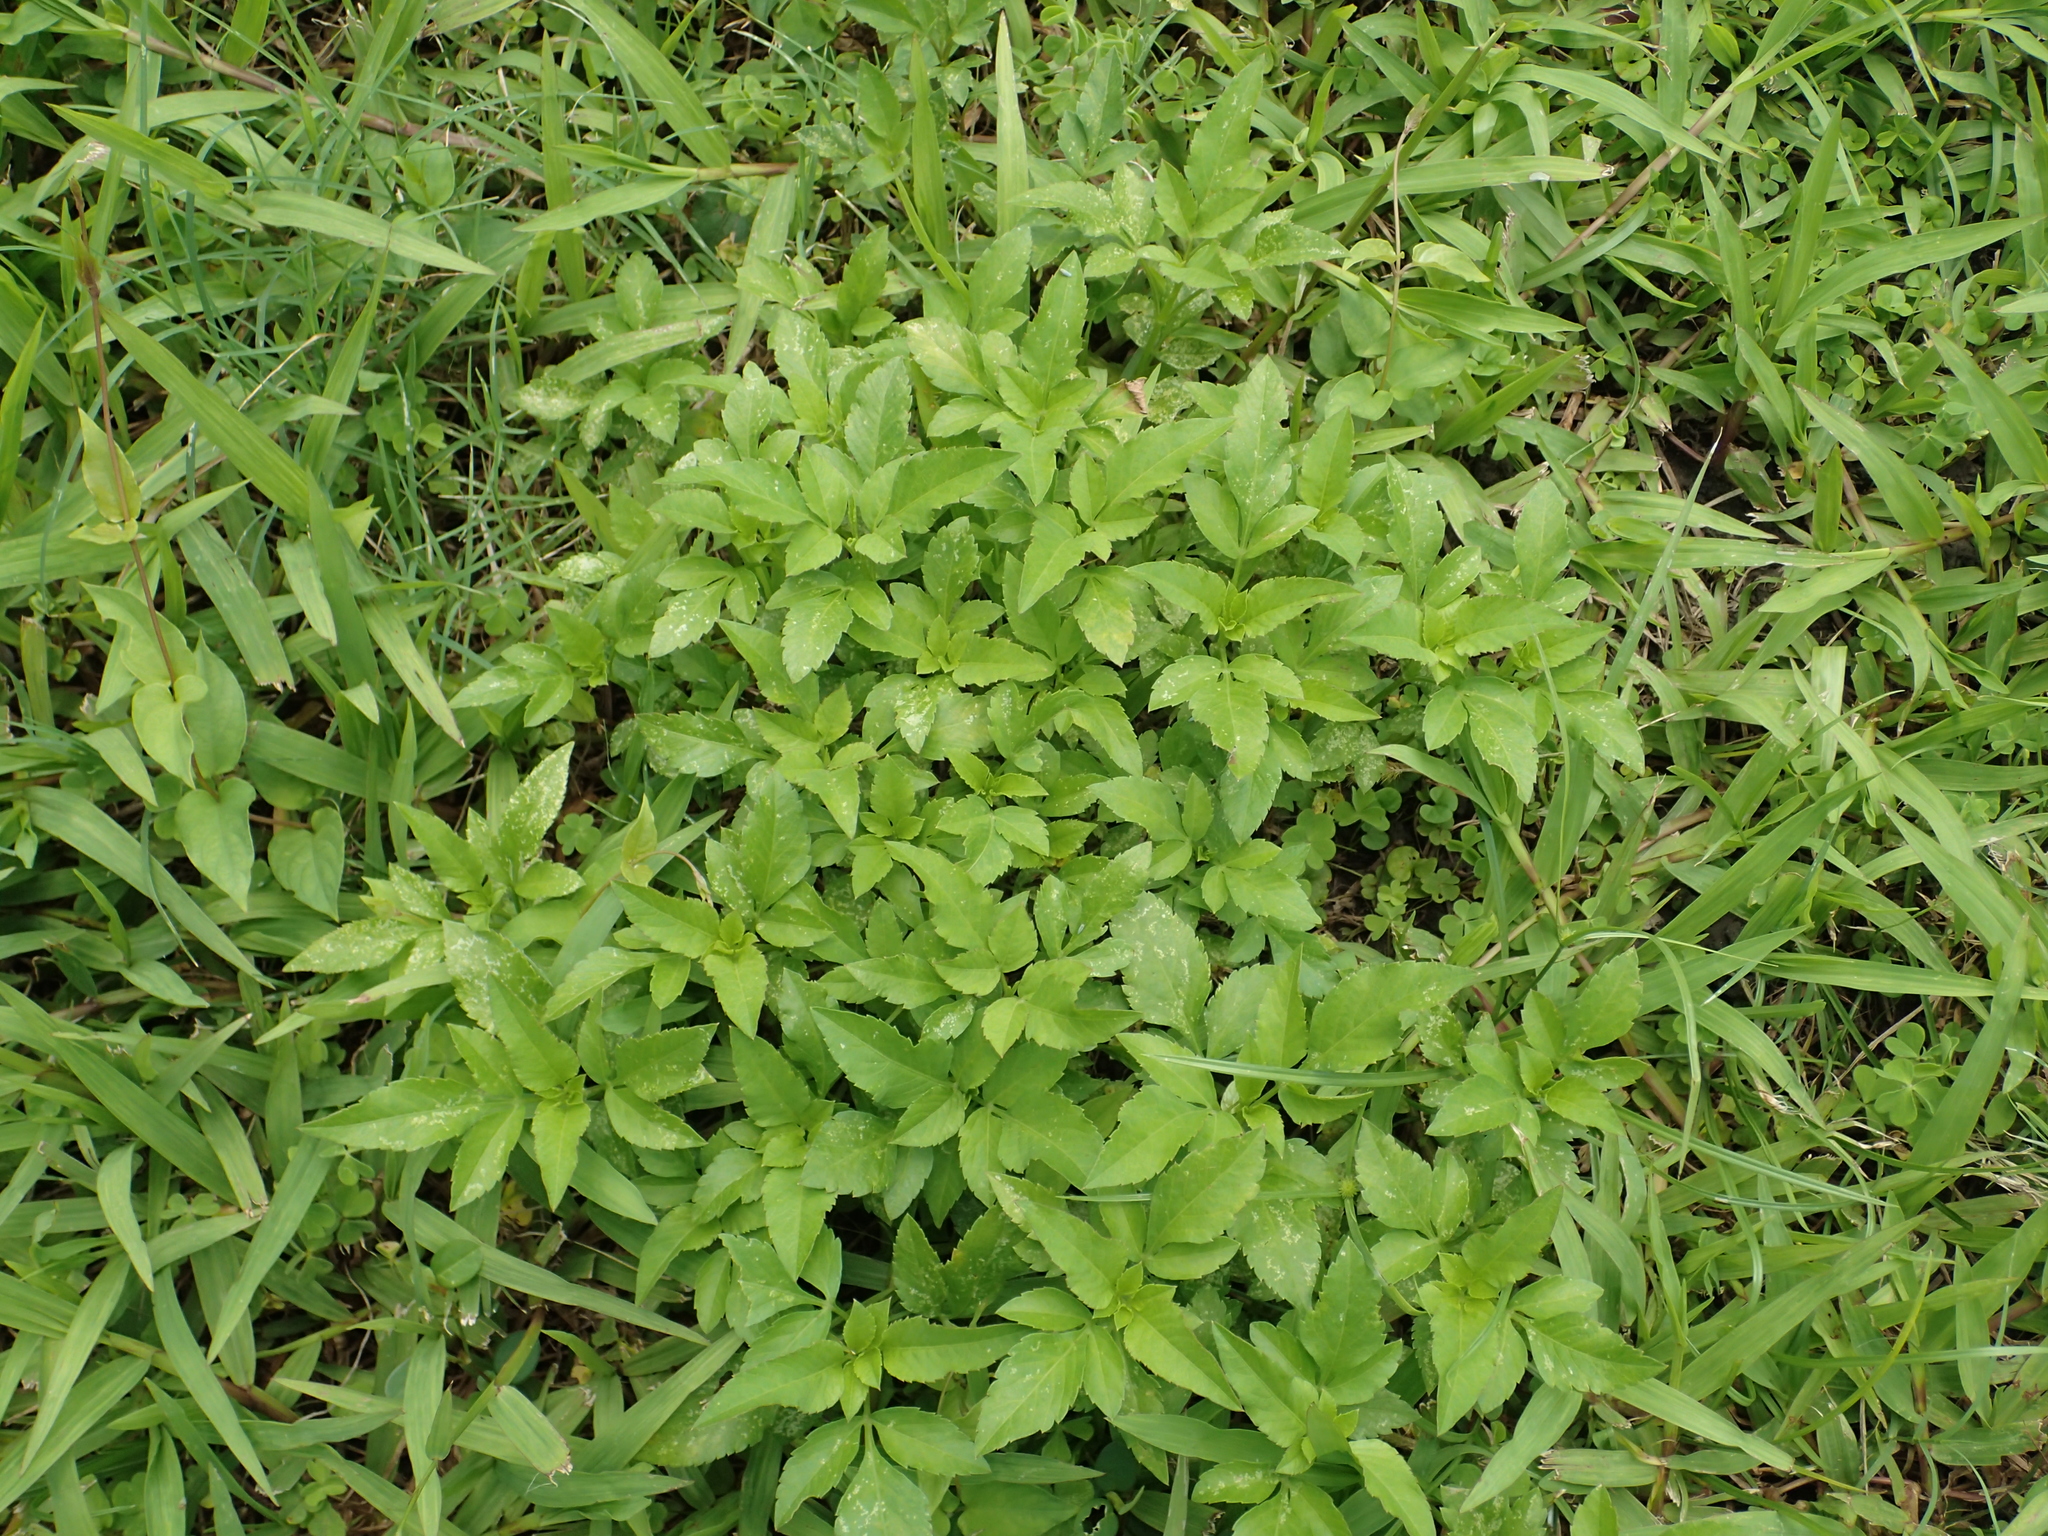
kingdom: Plantae
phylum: Tracheophyta
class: Magnoliopsida
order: Asterales
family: Asteraceae
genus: Bidens
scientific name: Bidens alba
